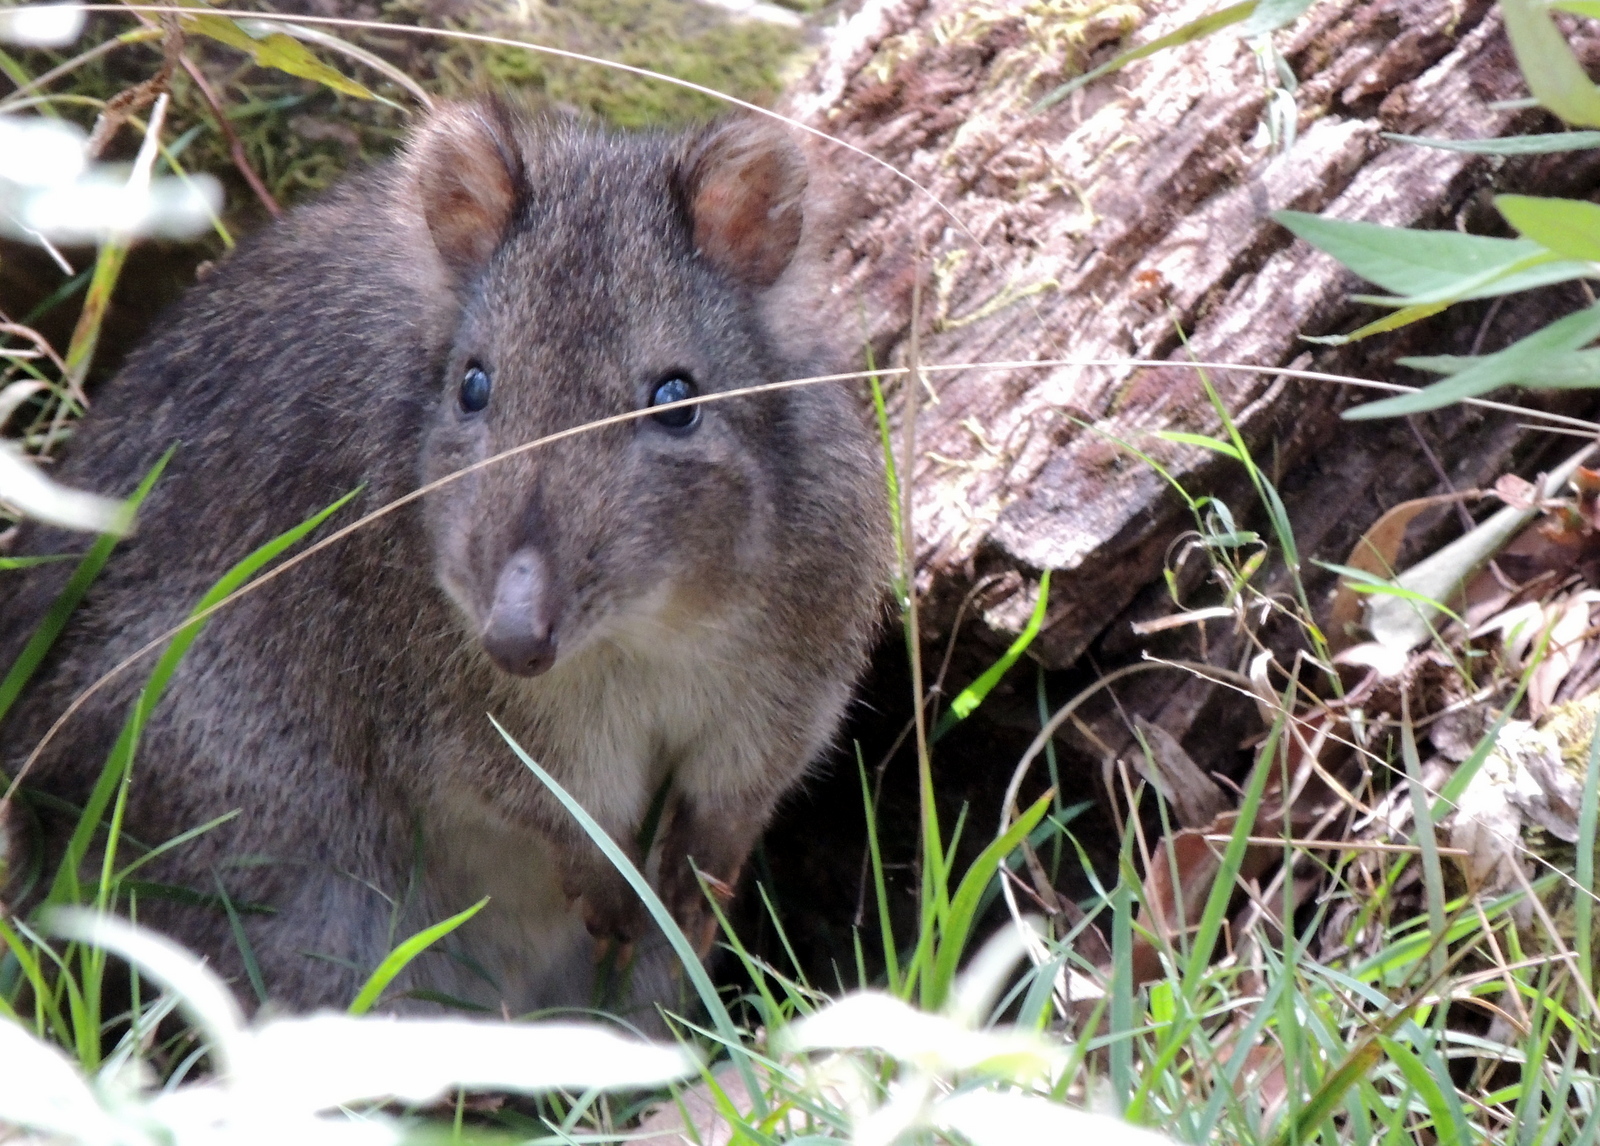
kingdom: Animalia
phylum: Chordata
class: Mammalia
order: Diprotodontia
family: Potoroidae
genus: Potorous
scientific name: Potorous tridactylus
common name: Long-nosed potoroo
